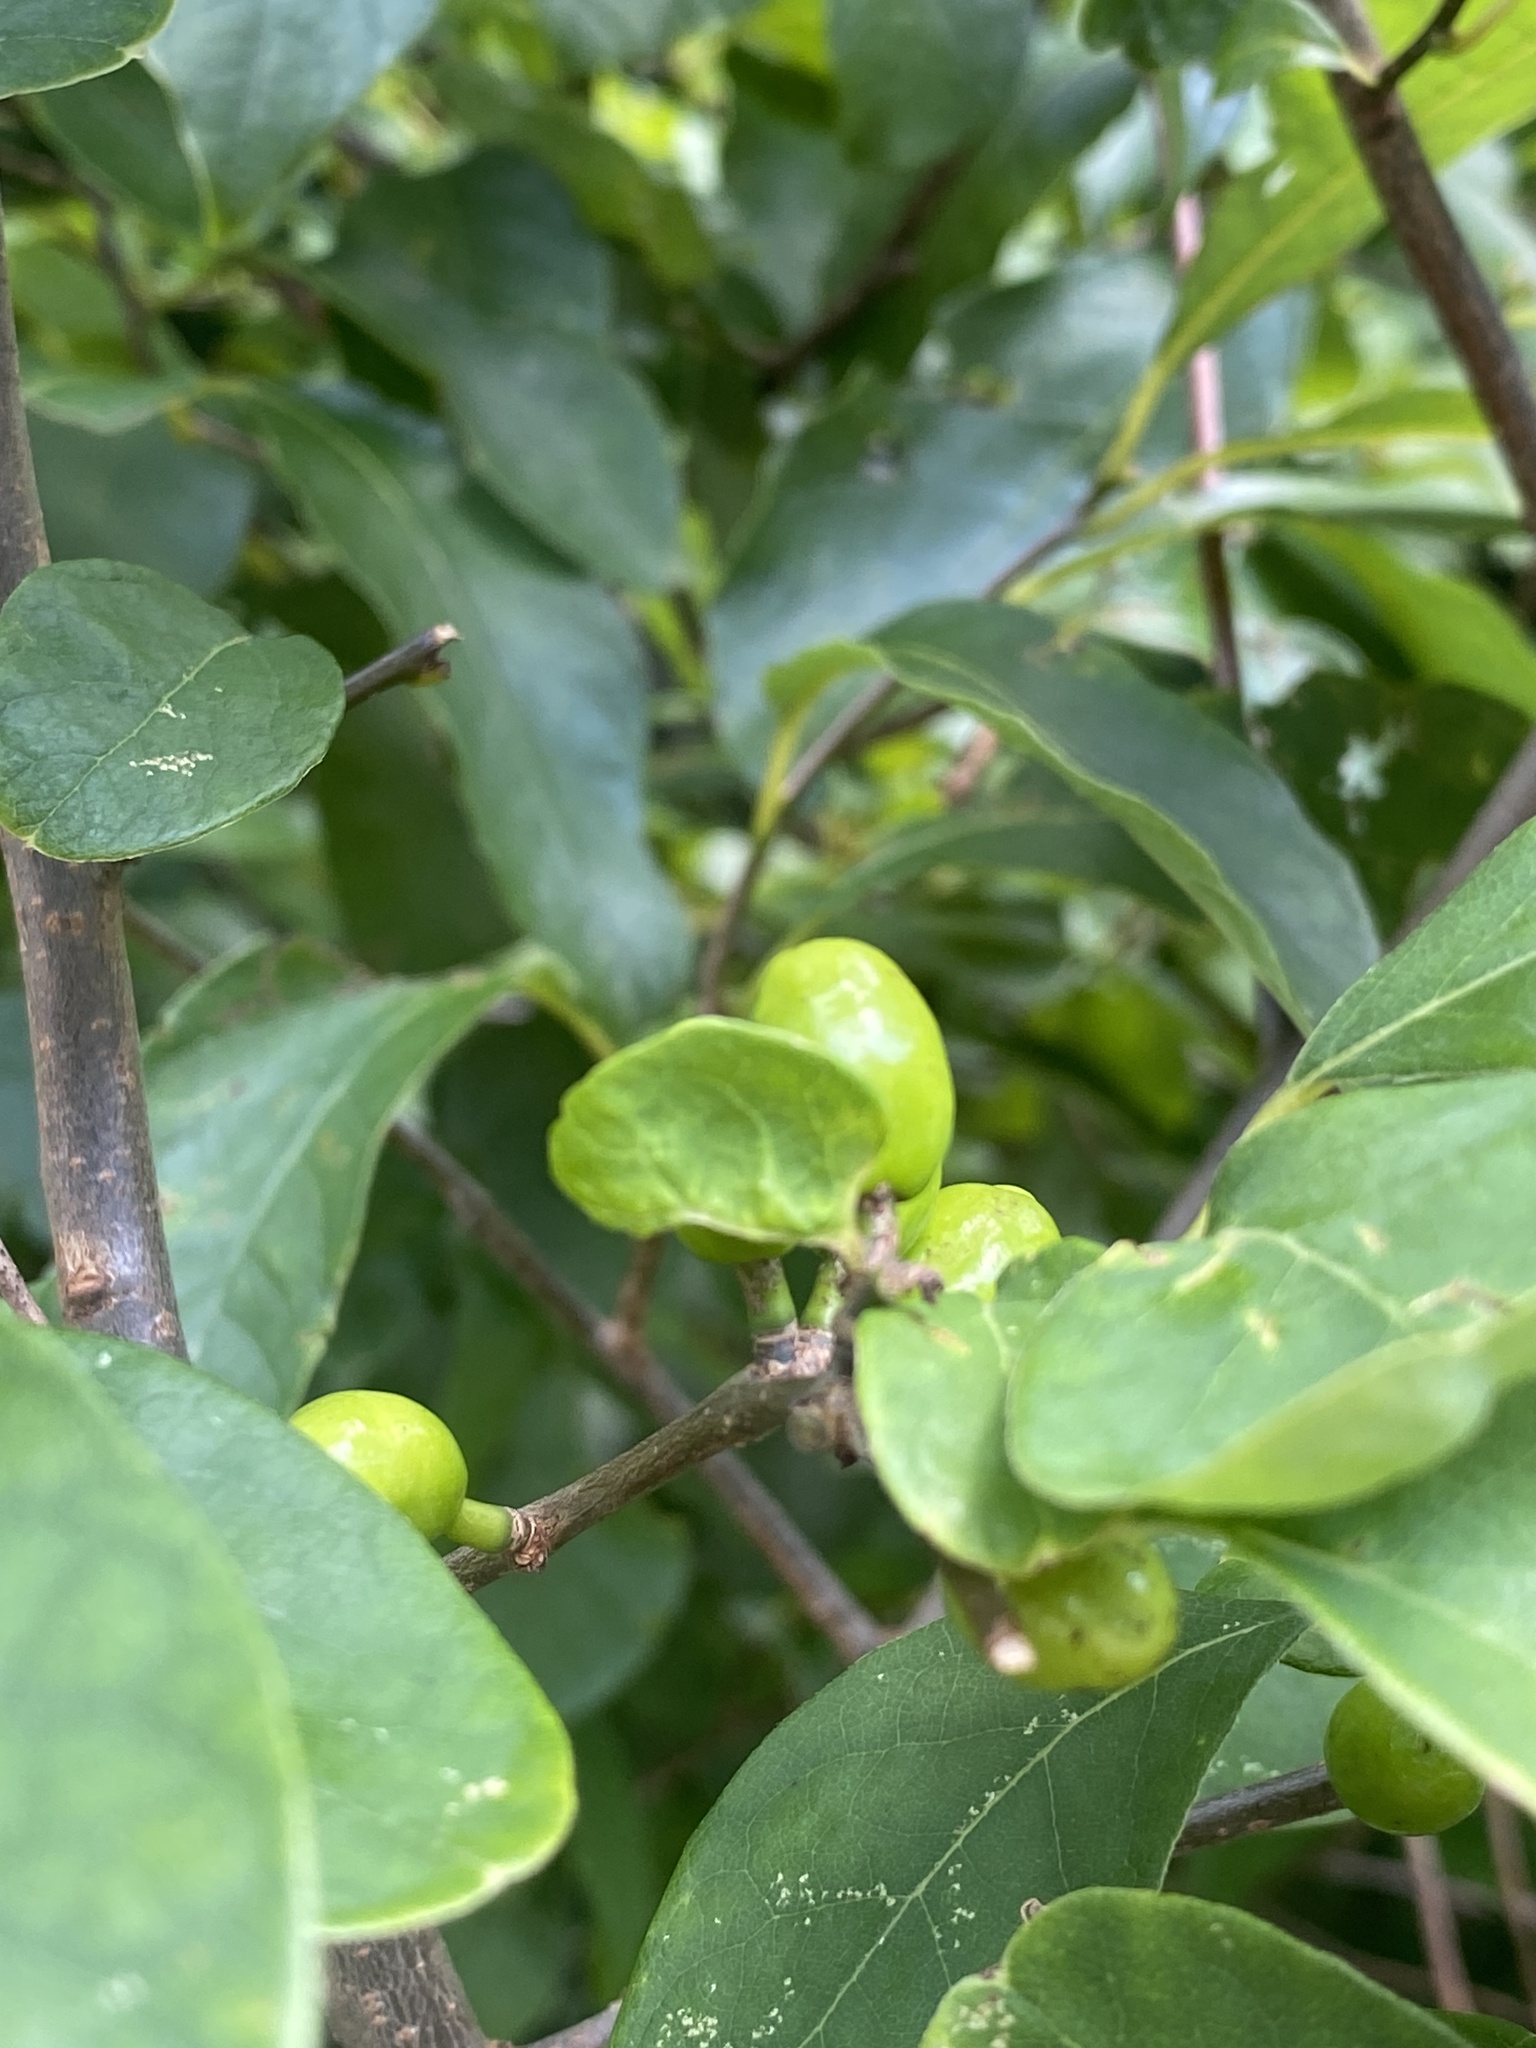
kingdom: Plantae
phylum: Tracheophyta
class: Magnoliopsida
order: Laurales
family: Lauraceae
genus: Lindera
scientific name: Lindera benzoin
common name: Spicebush
